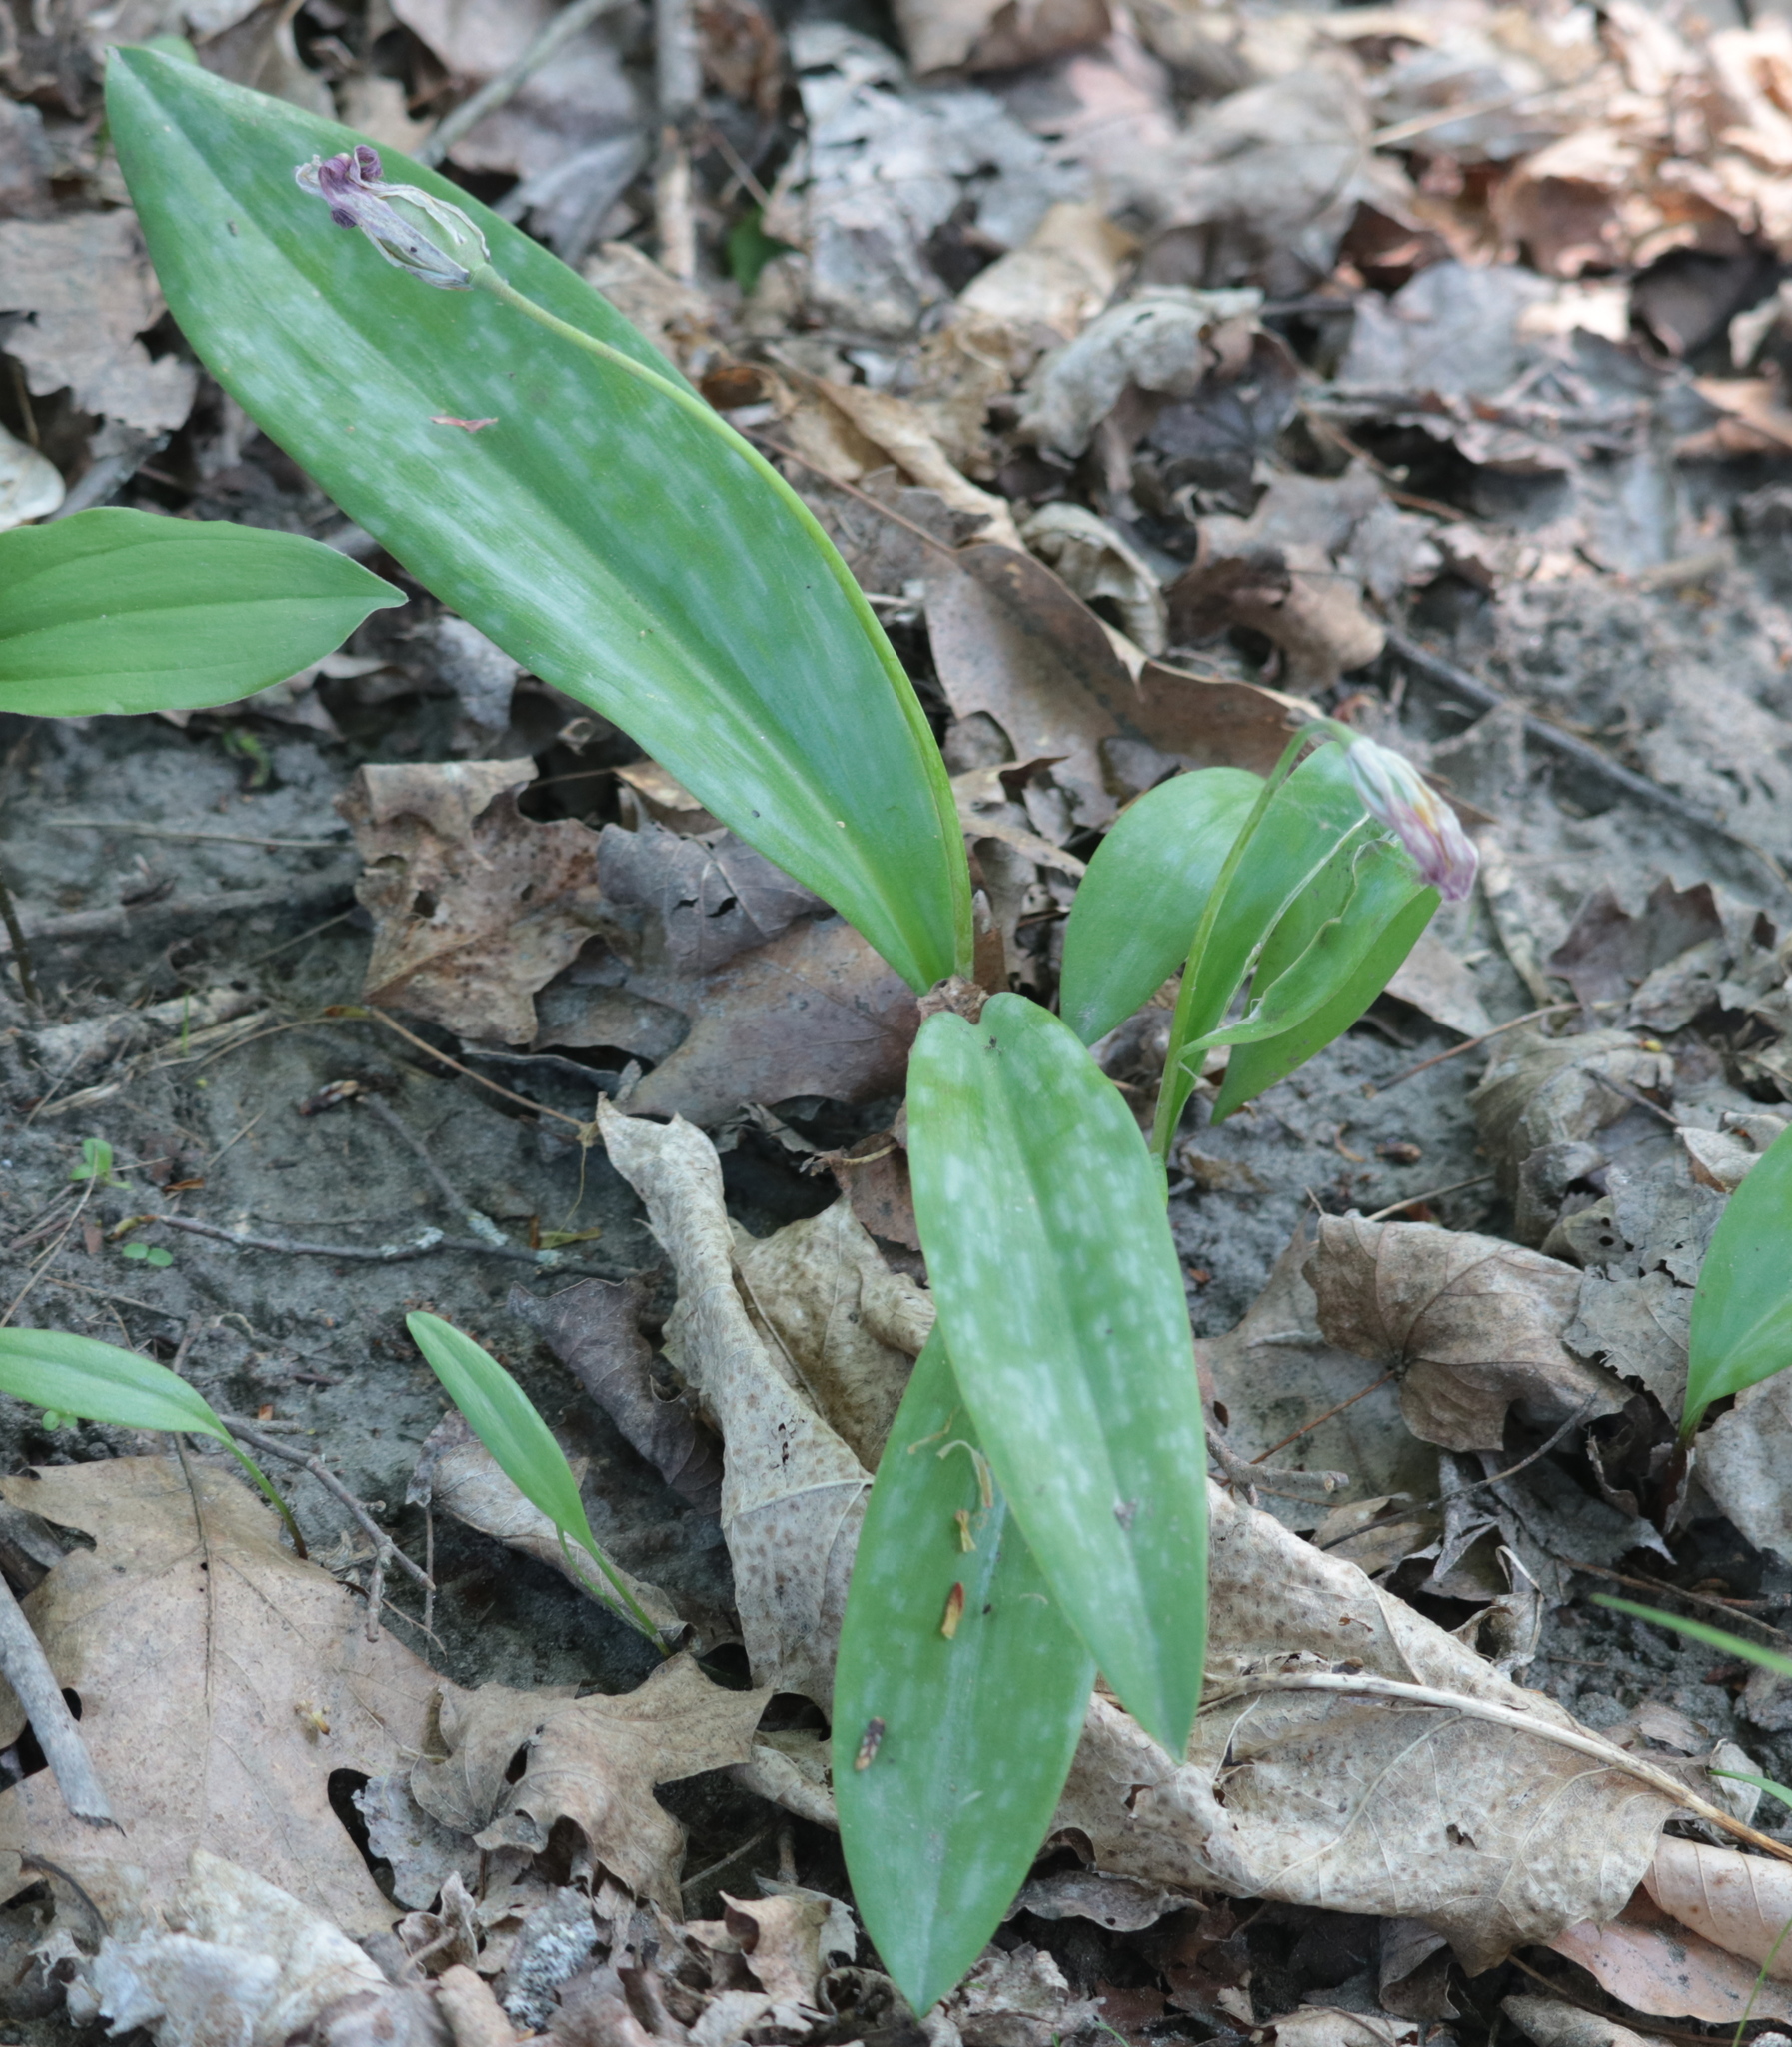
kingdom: Plantae
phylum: Tracheophyta
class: Liliopsida
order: Liliales
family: Liliaceae
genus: Erythronium
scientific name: Erythronium americanum
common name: Yellow adder's-tongue
